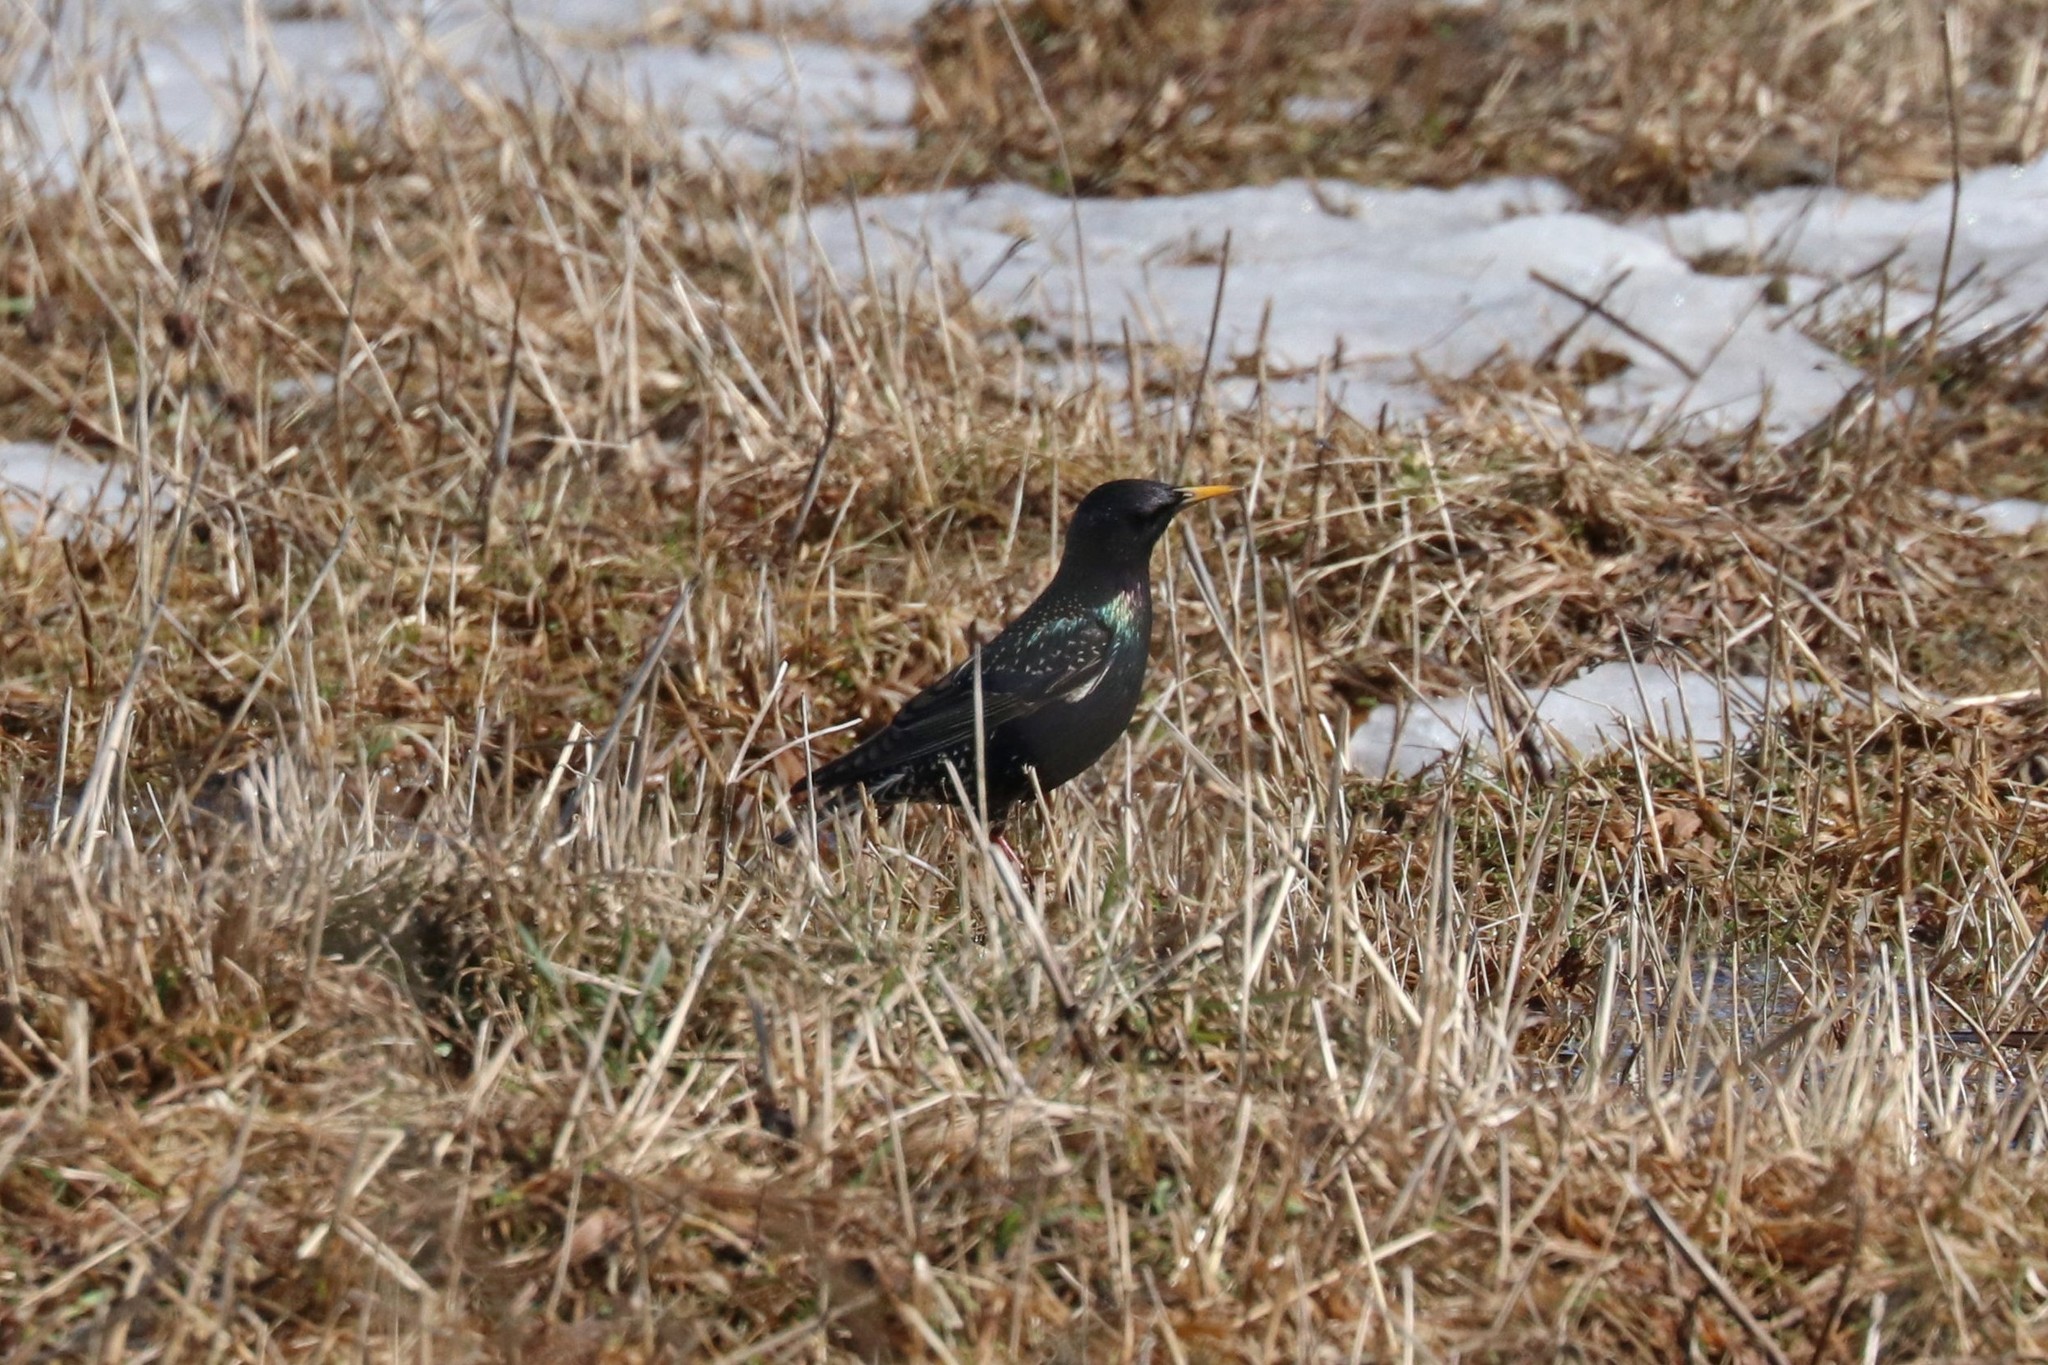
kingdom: Animalia
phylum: Chordata
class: Aves
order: Passeriformes
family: Sturnidae
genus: Sturnus
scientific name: Sturnus vulgaris
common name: Common starling
